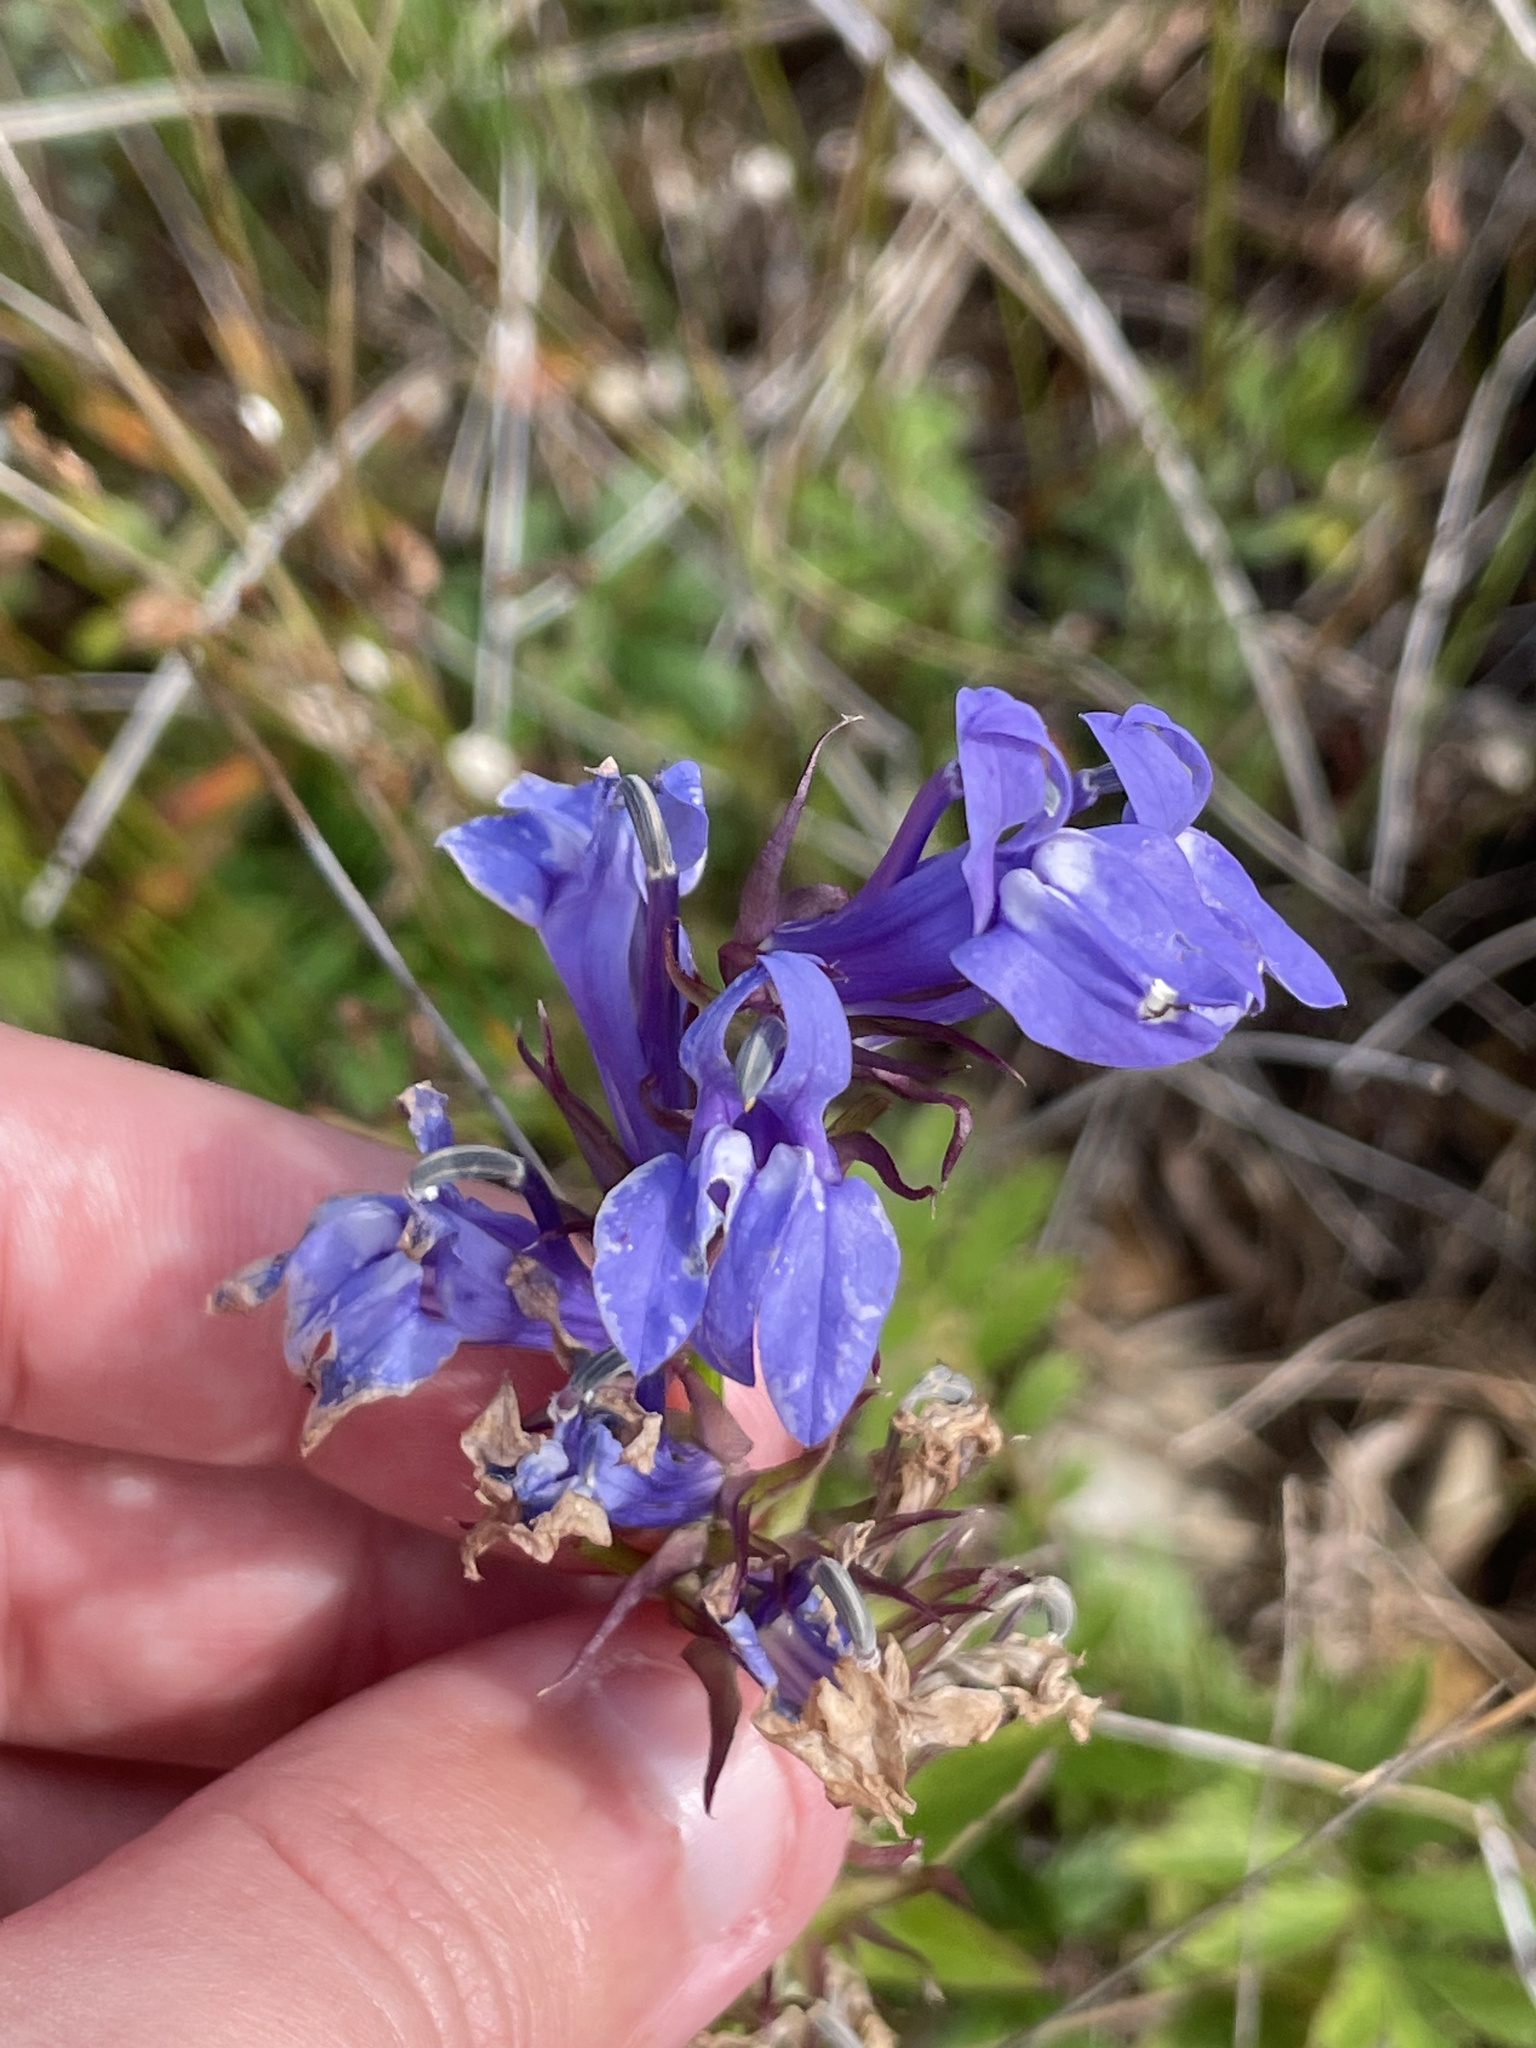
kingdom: Plantae
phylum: Tracheophyta
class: Magnoliopsida
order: Asterales
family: Campanulaceae
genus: Lobelia
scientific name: Lobelia siphilitica
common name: Great lobelia
